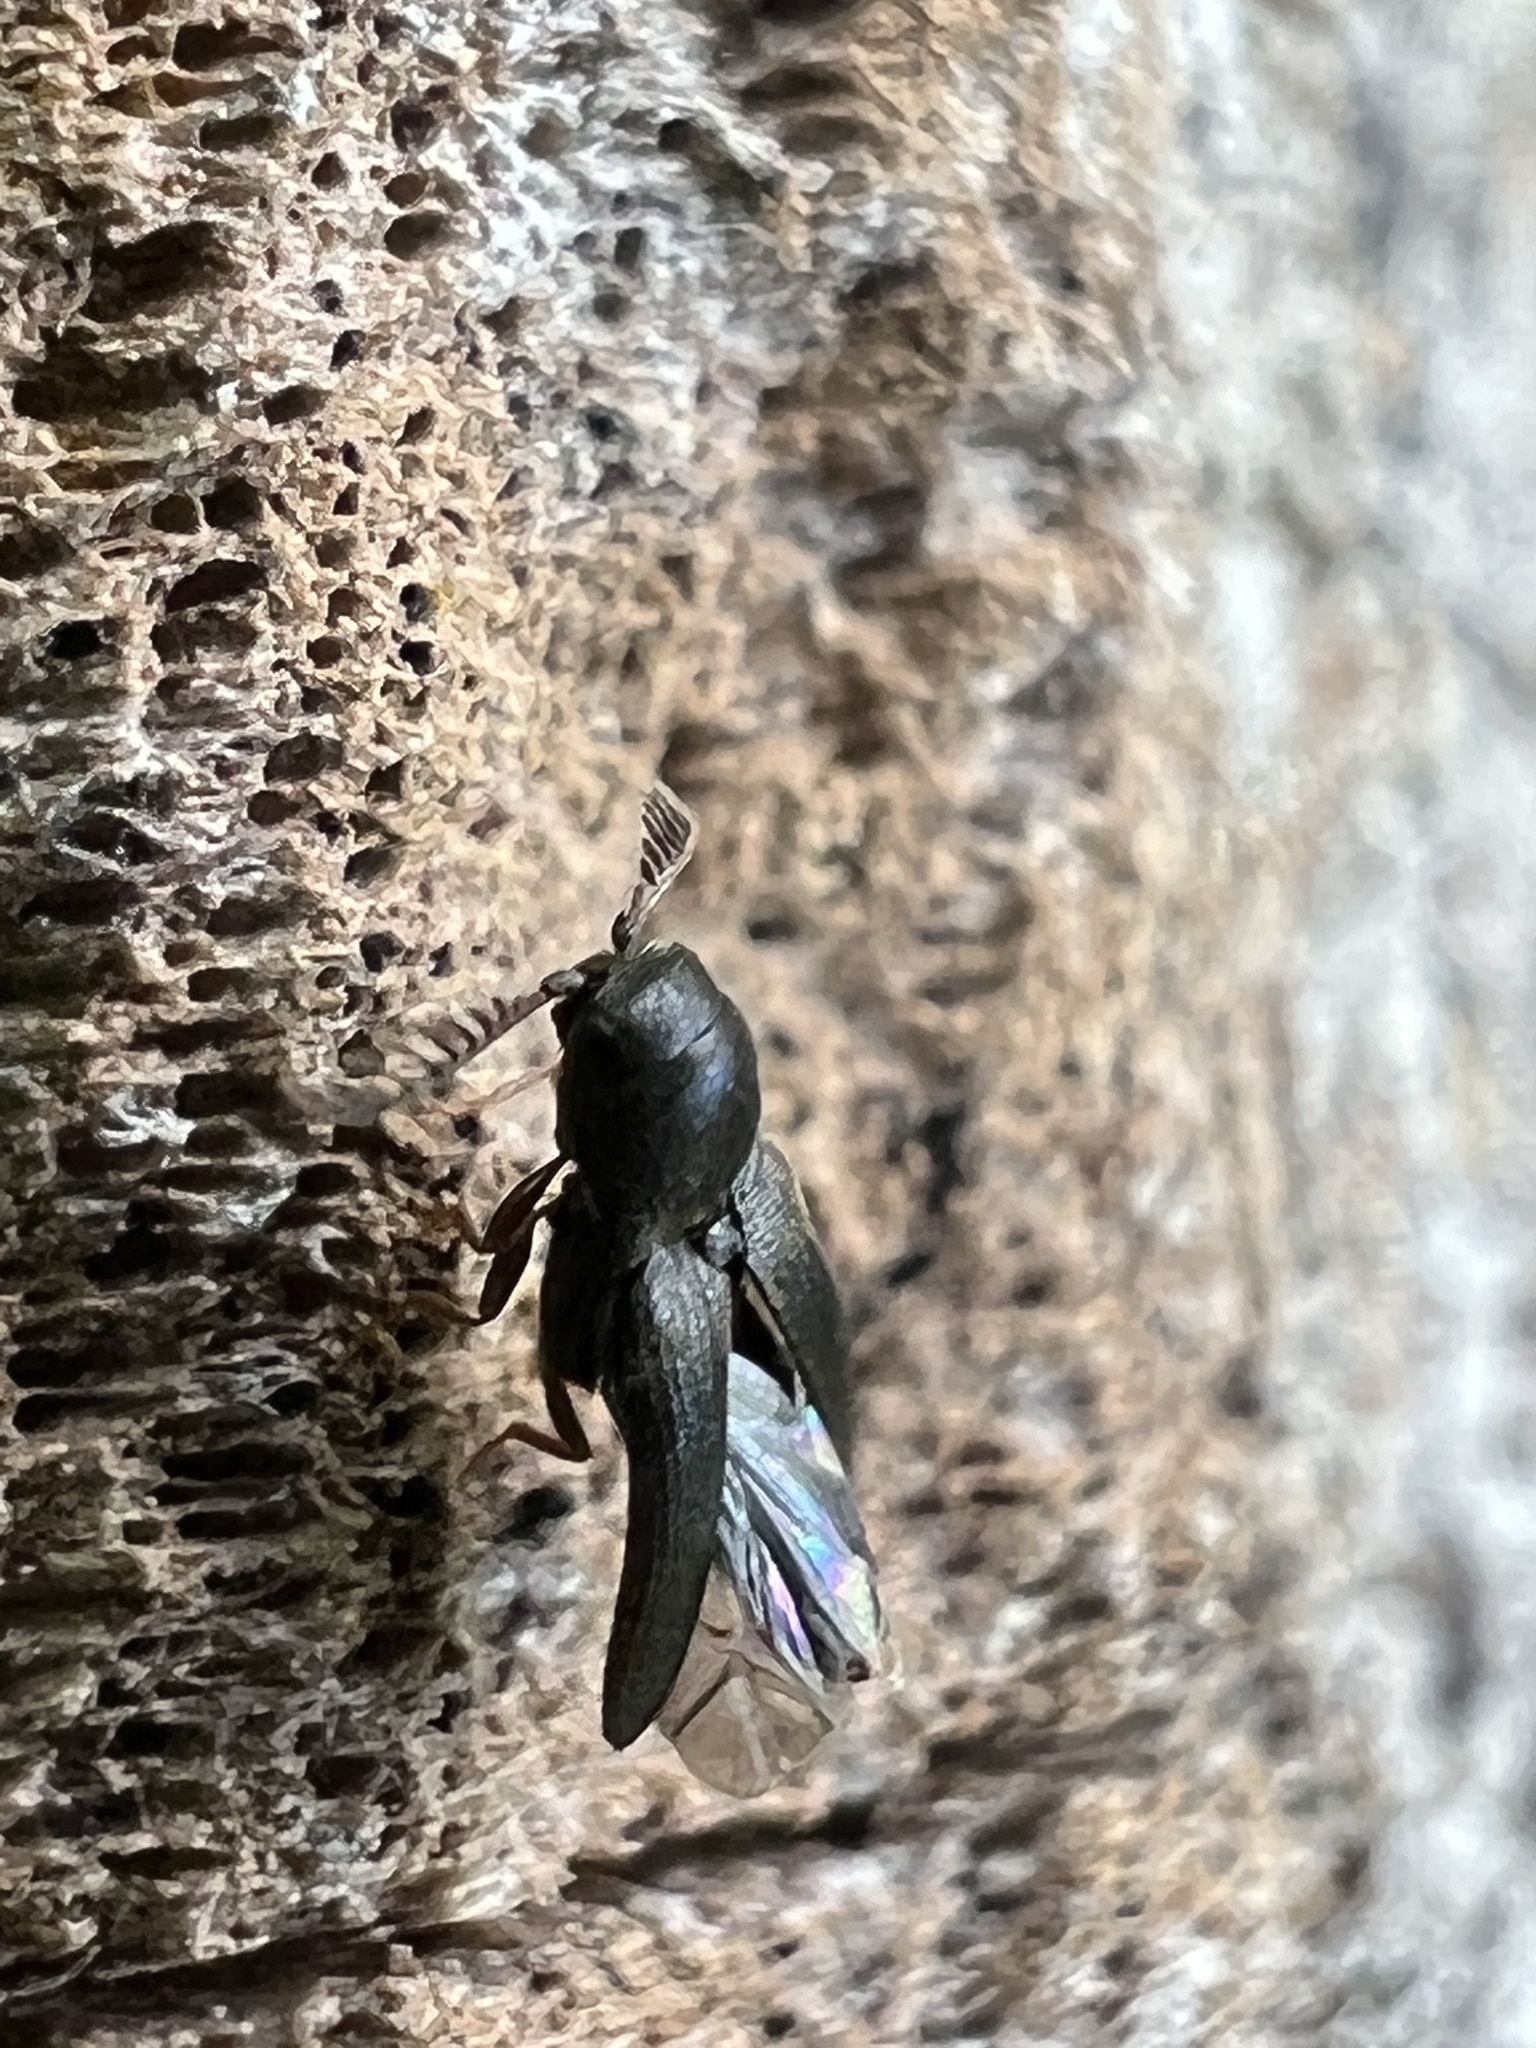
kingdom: Animalia
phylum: Arthropoda
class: Insecta
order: Coleoptera
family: Eucnemidae
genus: Deltometopus
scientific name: Deltometopus amoenicornis
